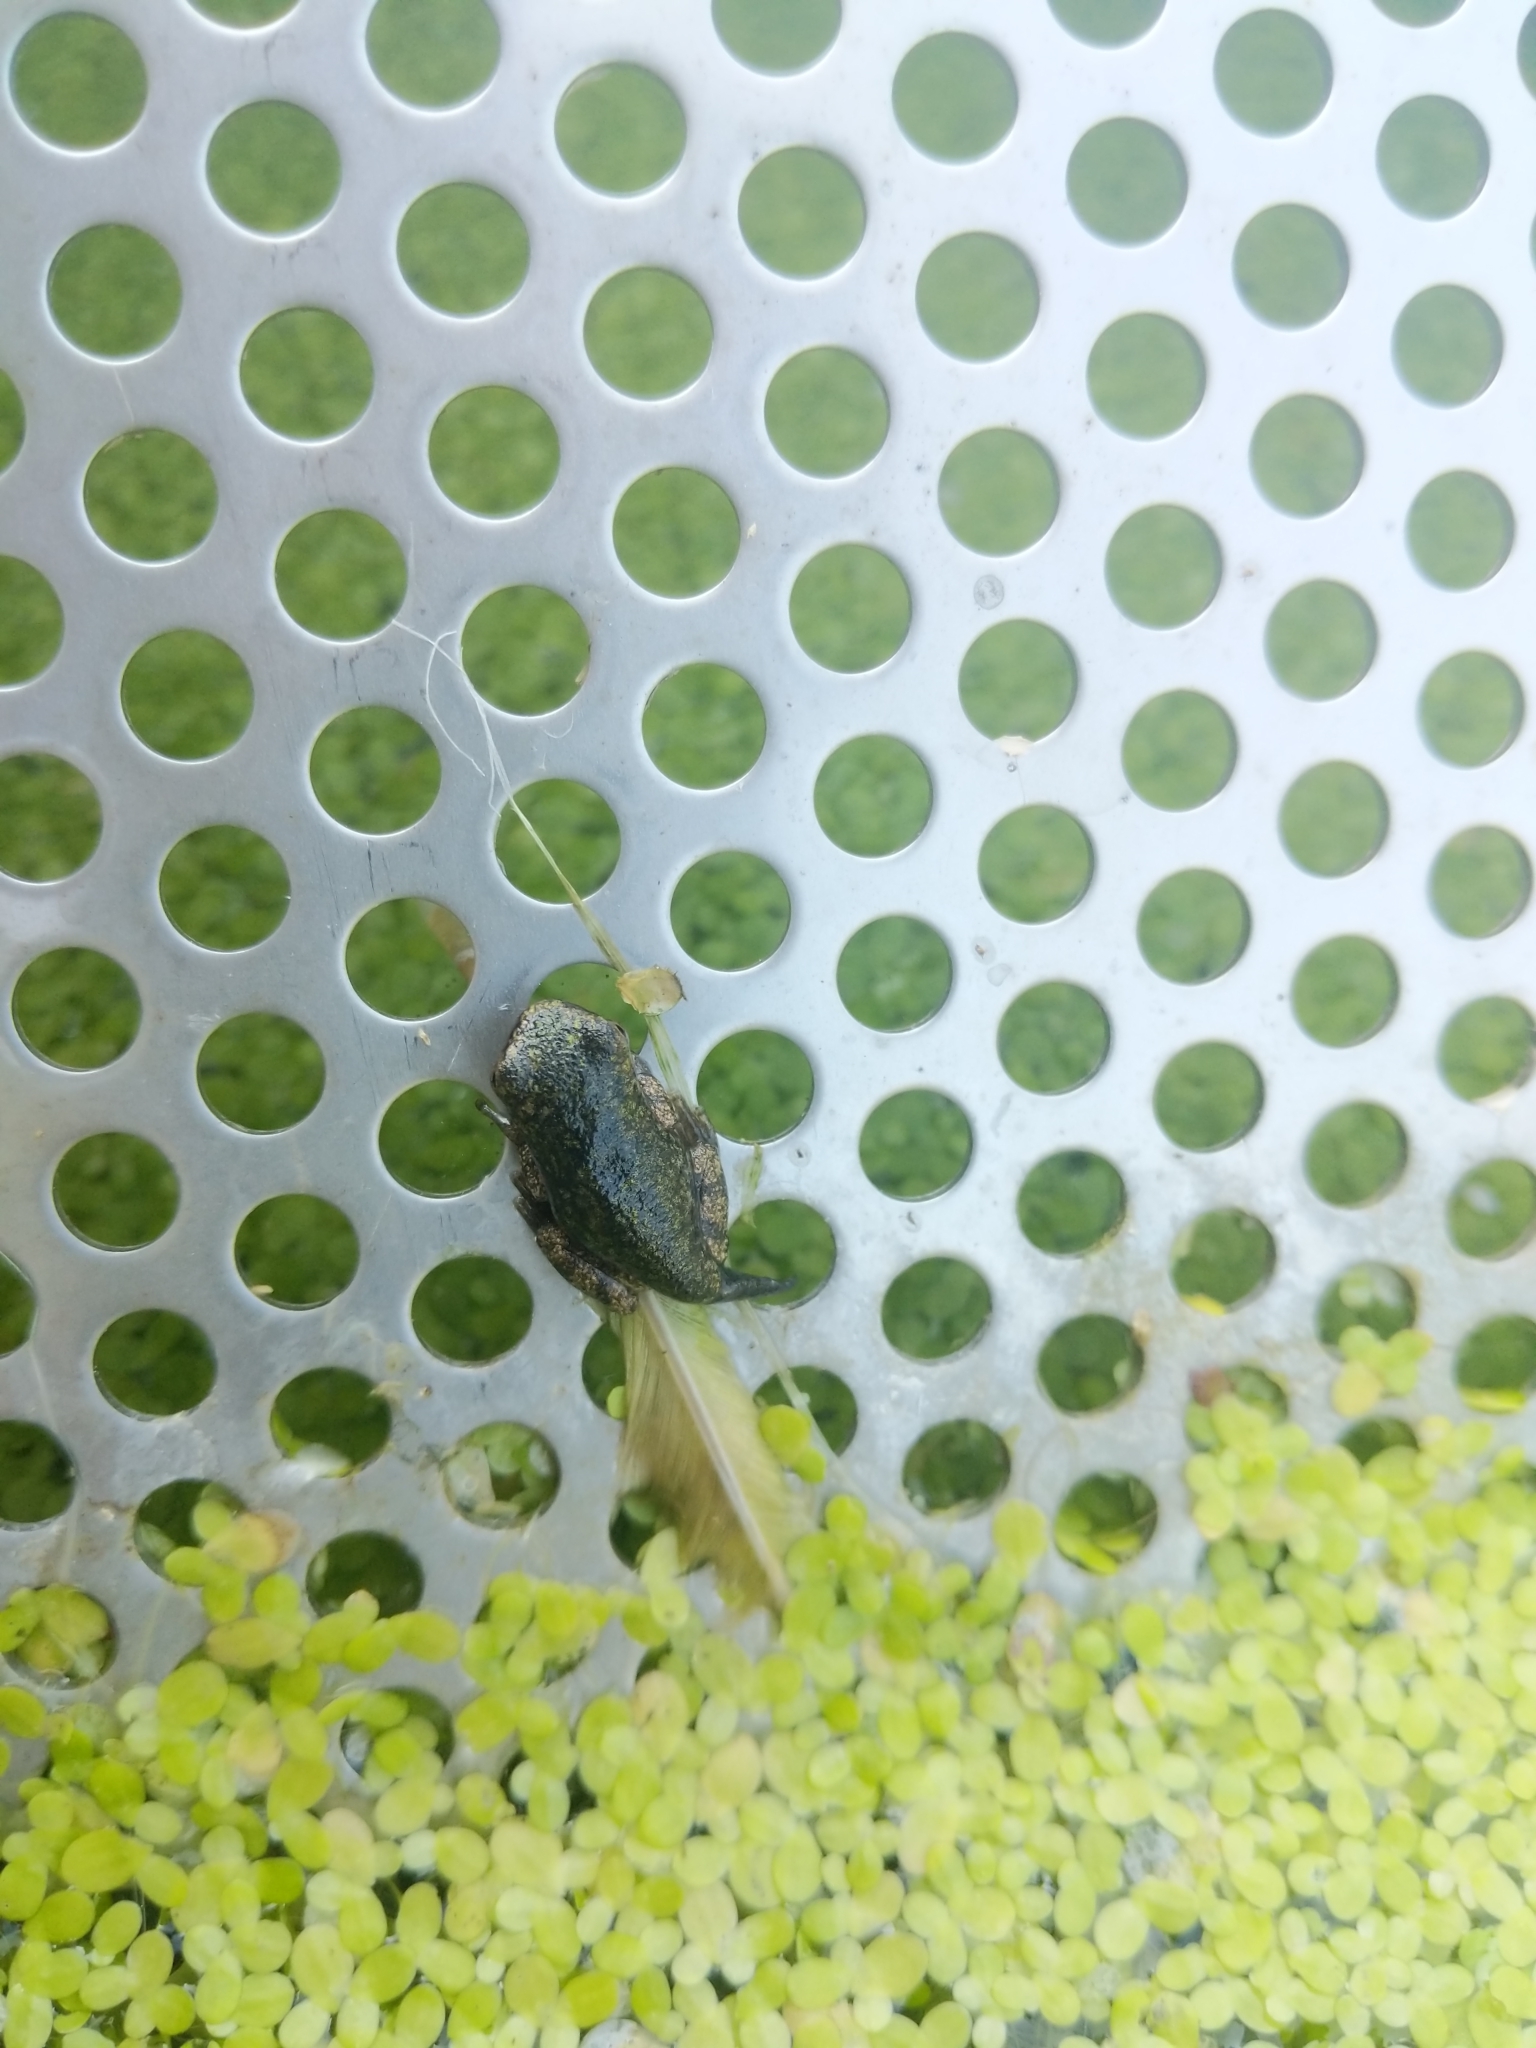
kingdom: Animalia
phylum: Chordata
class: Amphibia
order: Anura
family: Hylidae
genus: Dryophytes
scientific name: Dryophytes versicolor
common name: Gray treefrog
